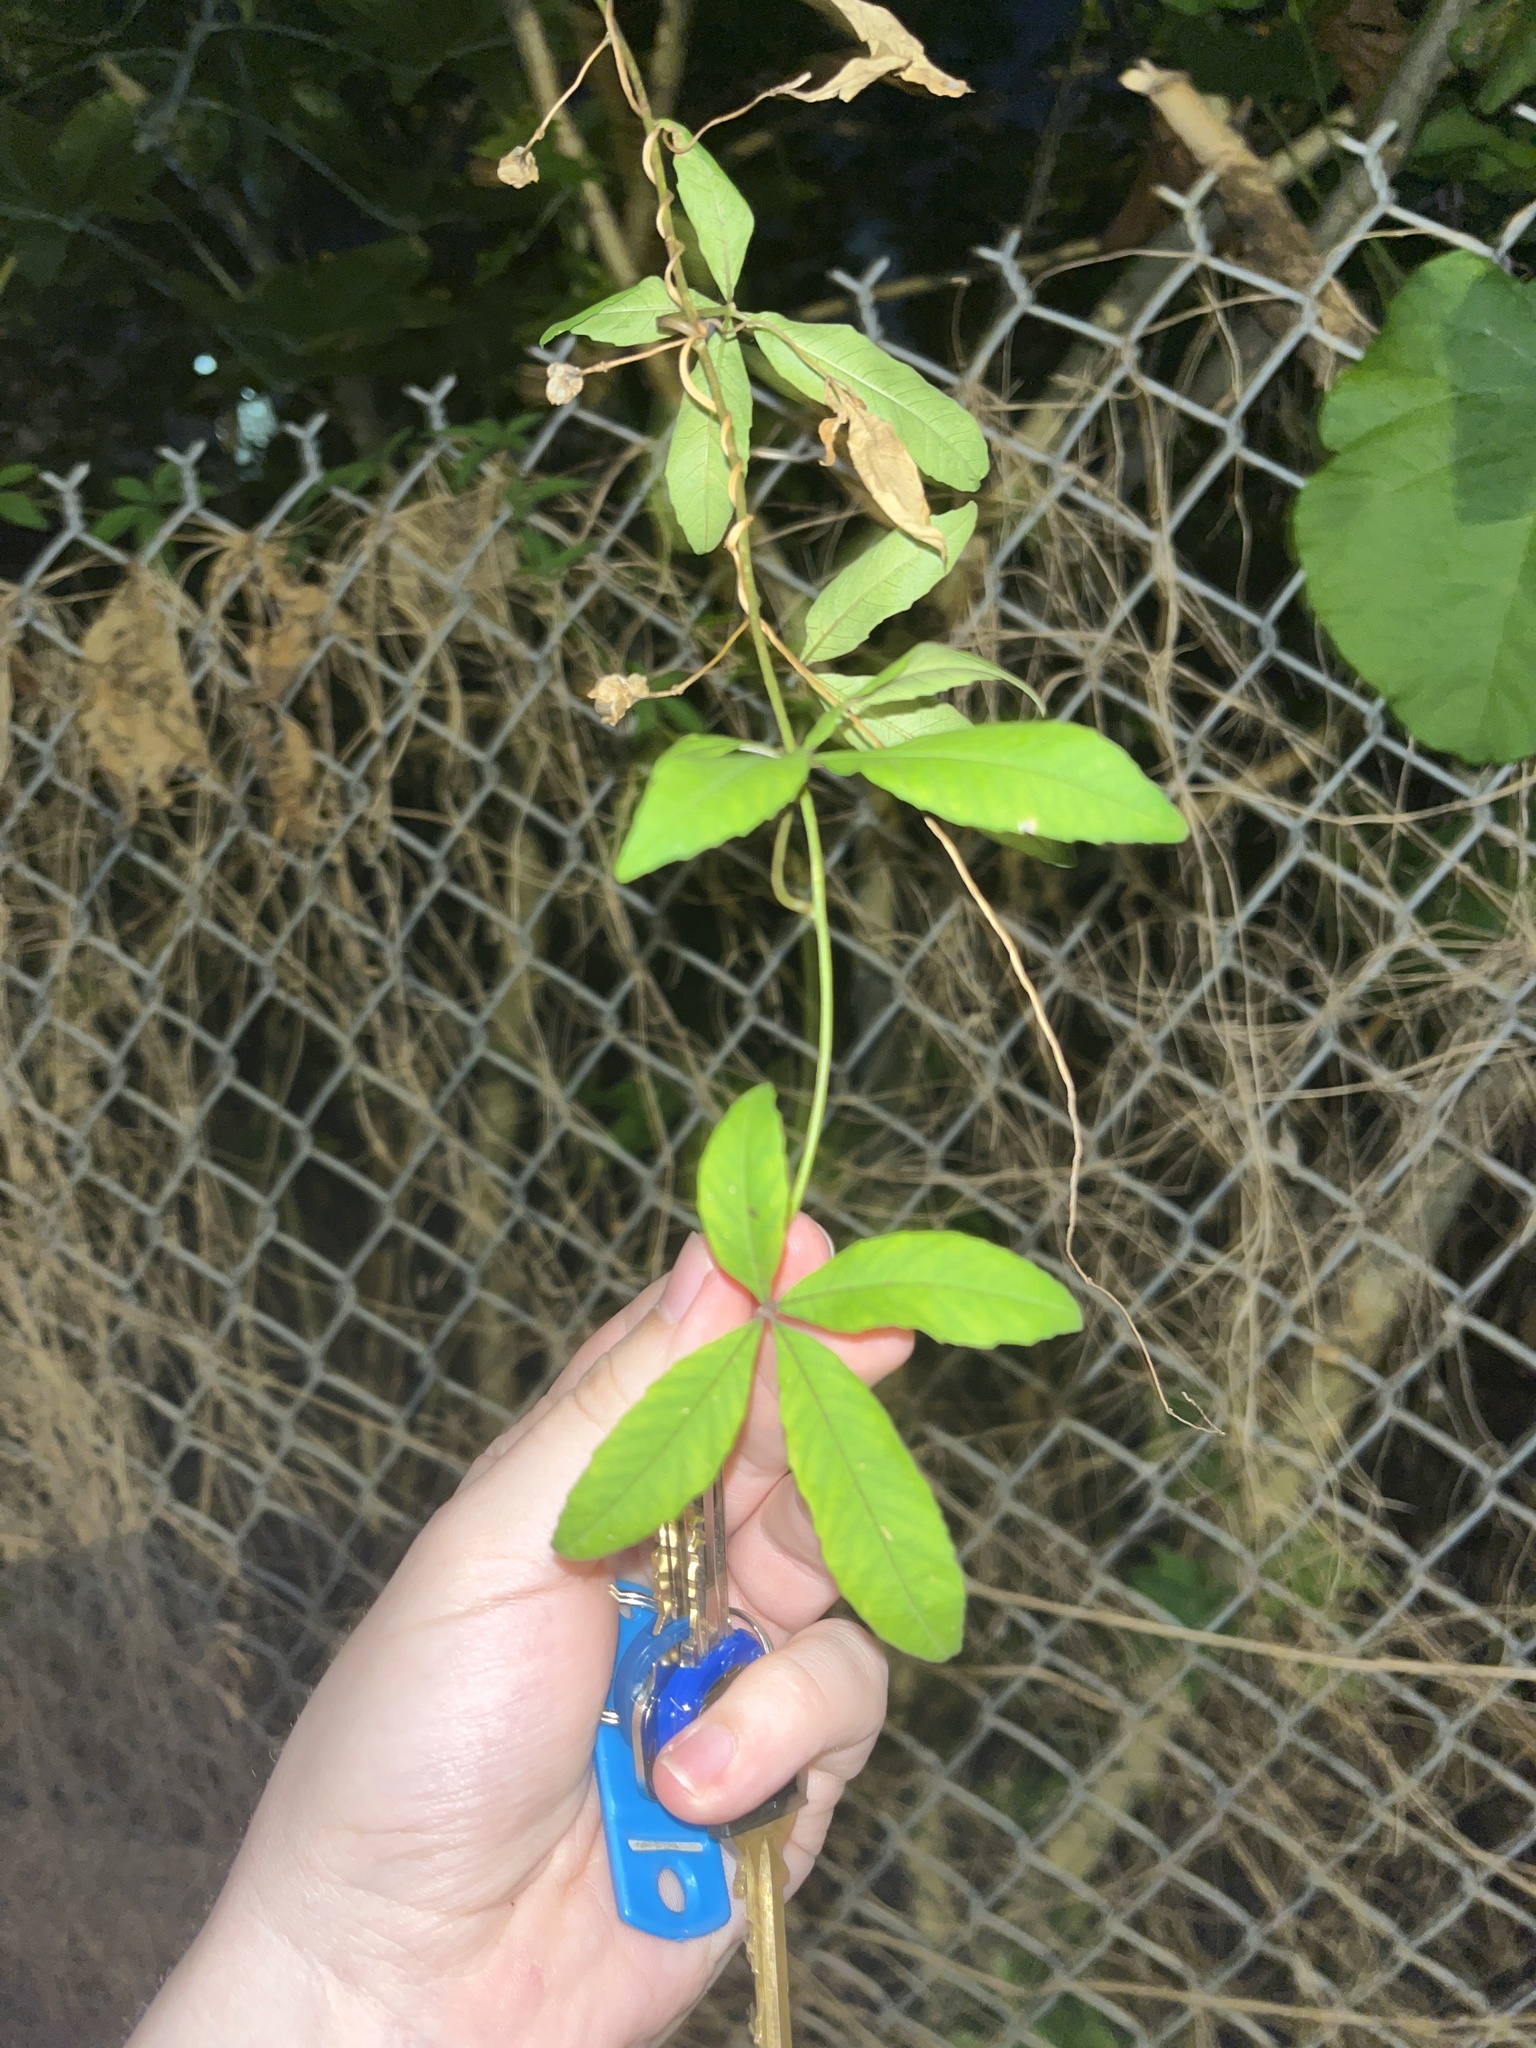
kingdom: Plantae
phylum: Tracheophyta
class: Magnoliopsida
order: Solanales
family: Convolvulaceae
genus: Distimake
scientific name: Distimake quinquefolius
